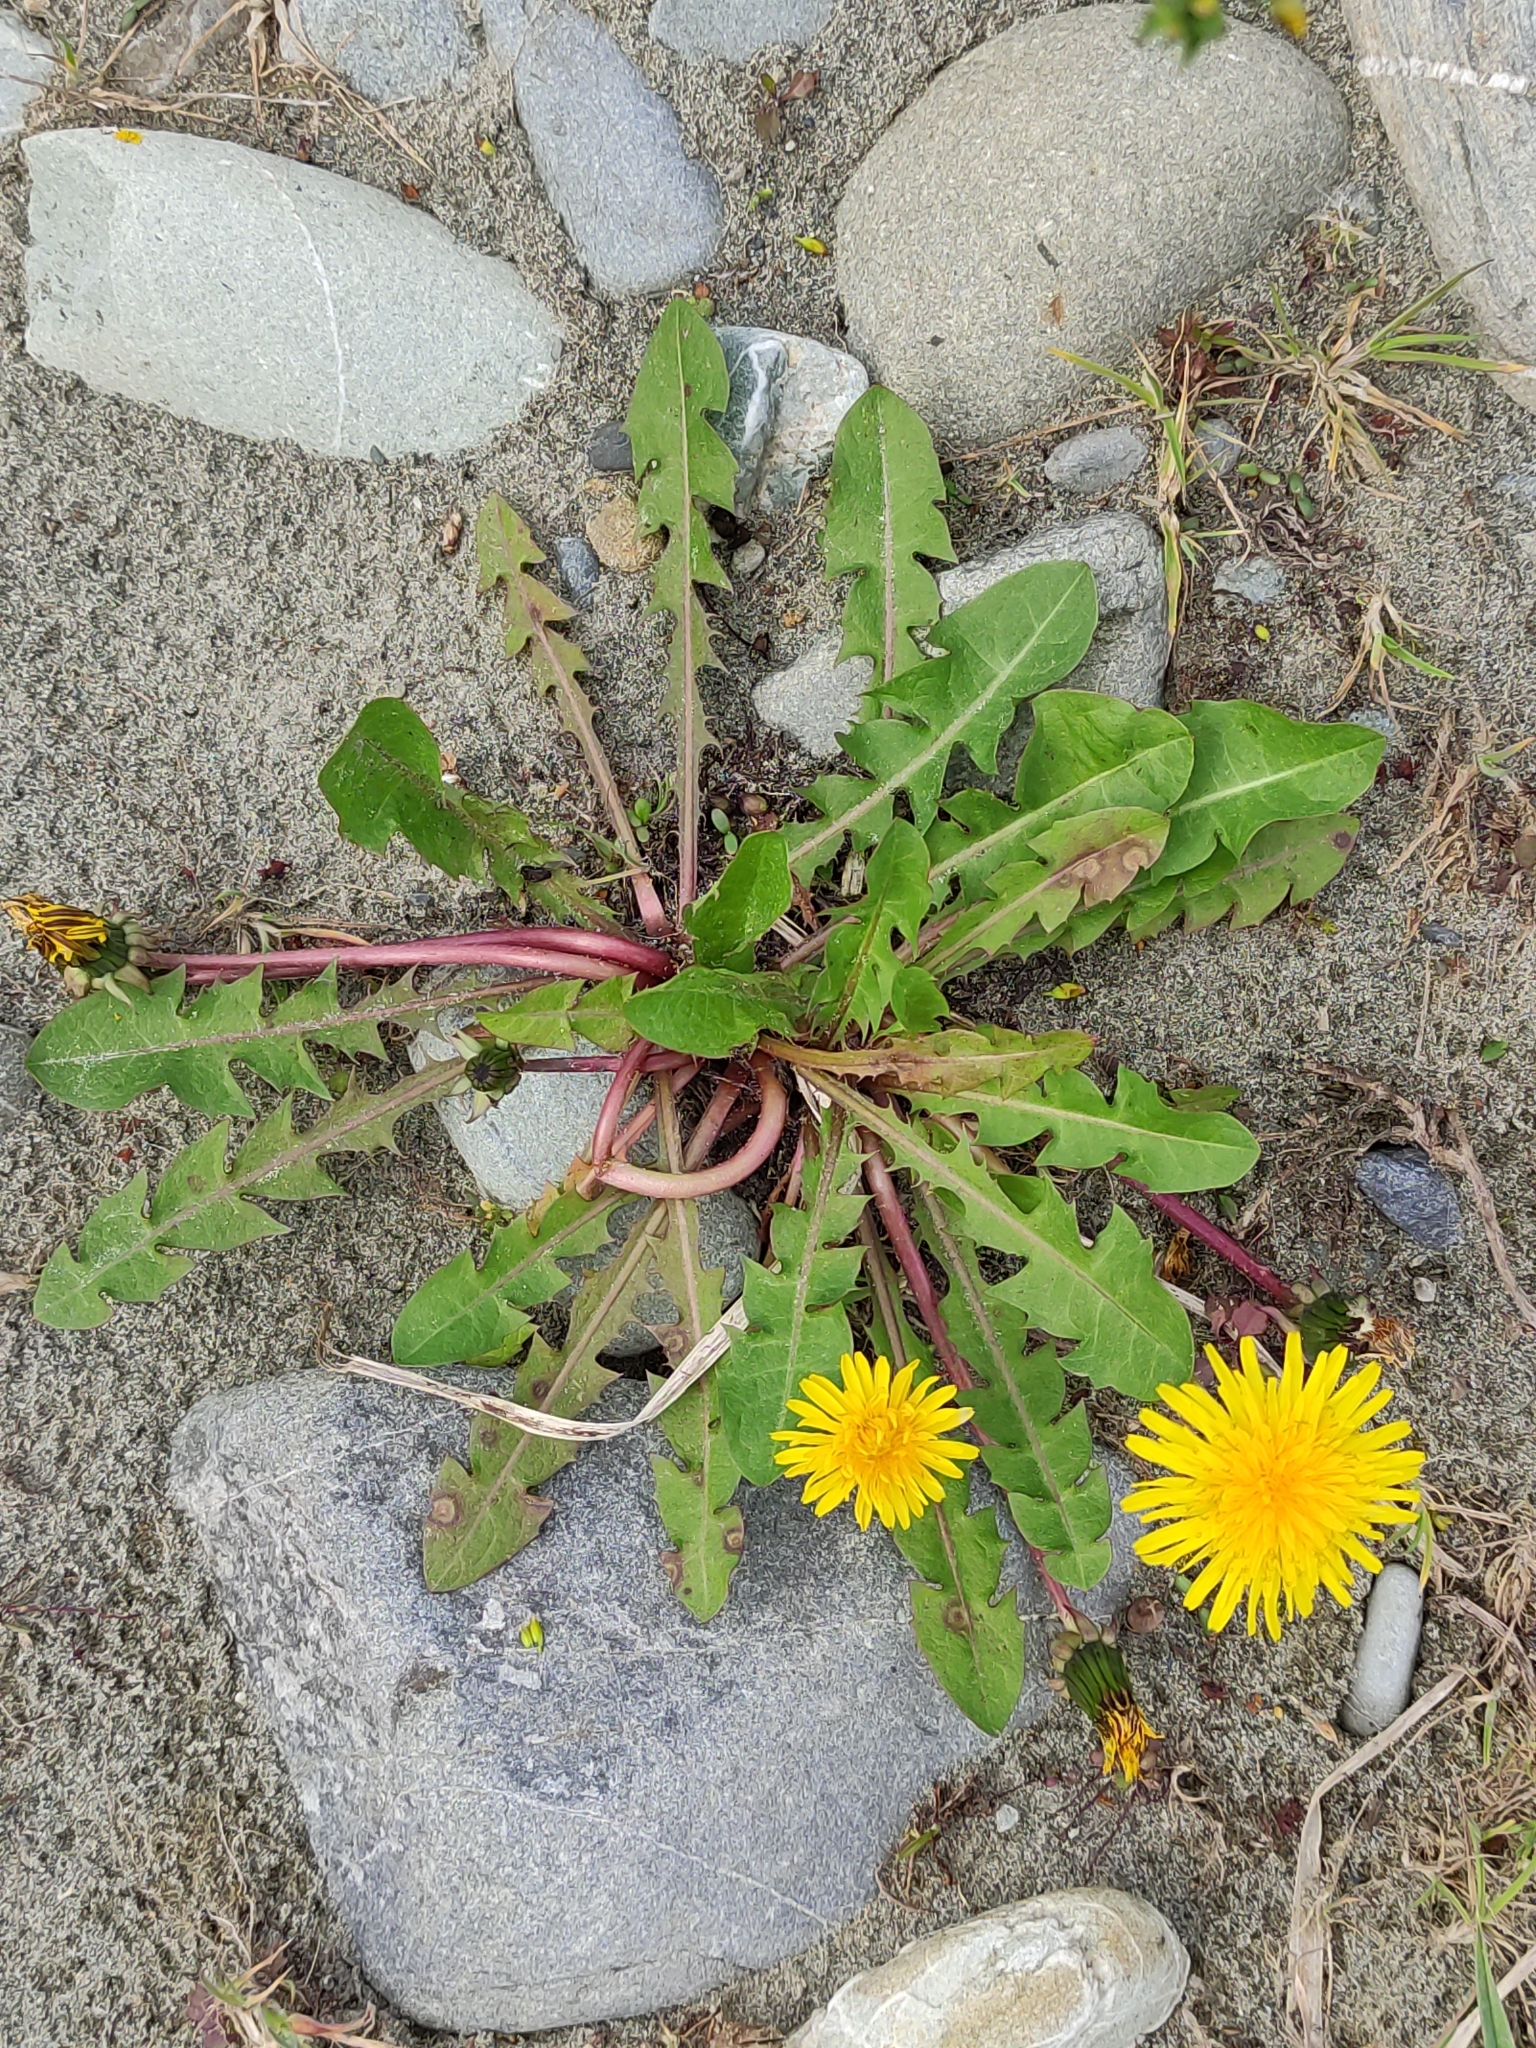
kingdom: Plantae
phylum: Tracheophyta
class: Magnoliopsida
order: Asterales
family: Asteraceae
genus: Taraxacum
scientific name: Taraxacum officinale
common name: Common dandelion
